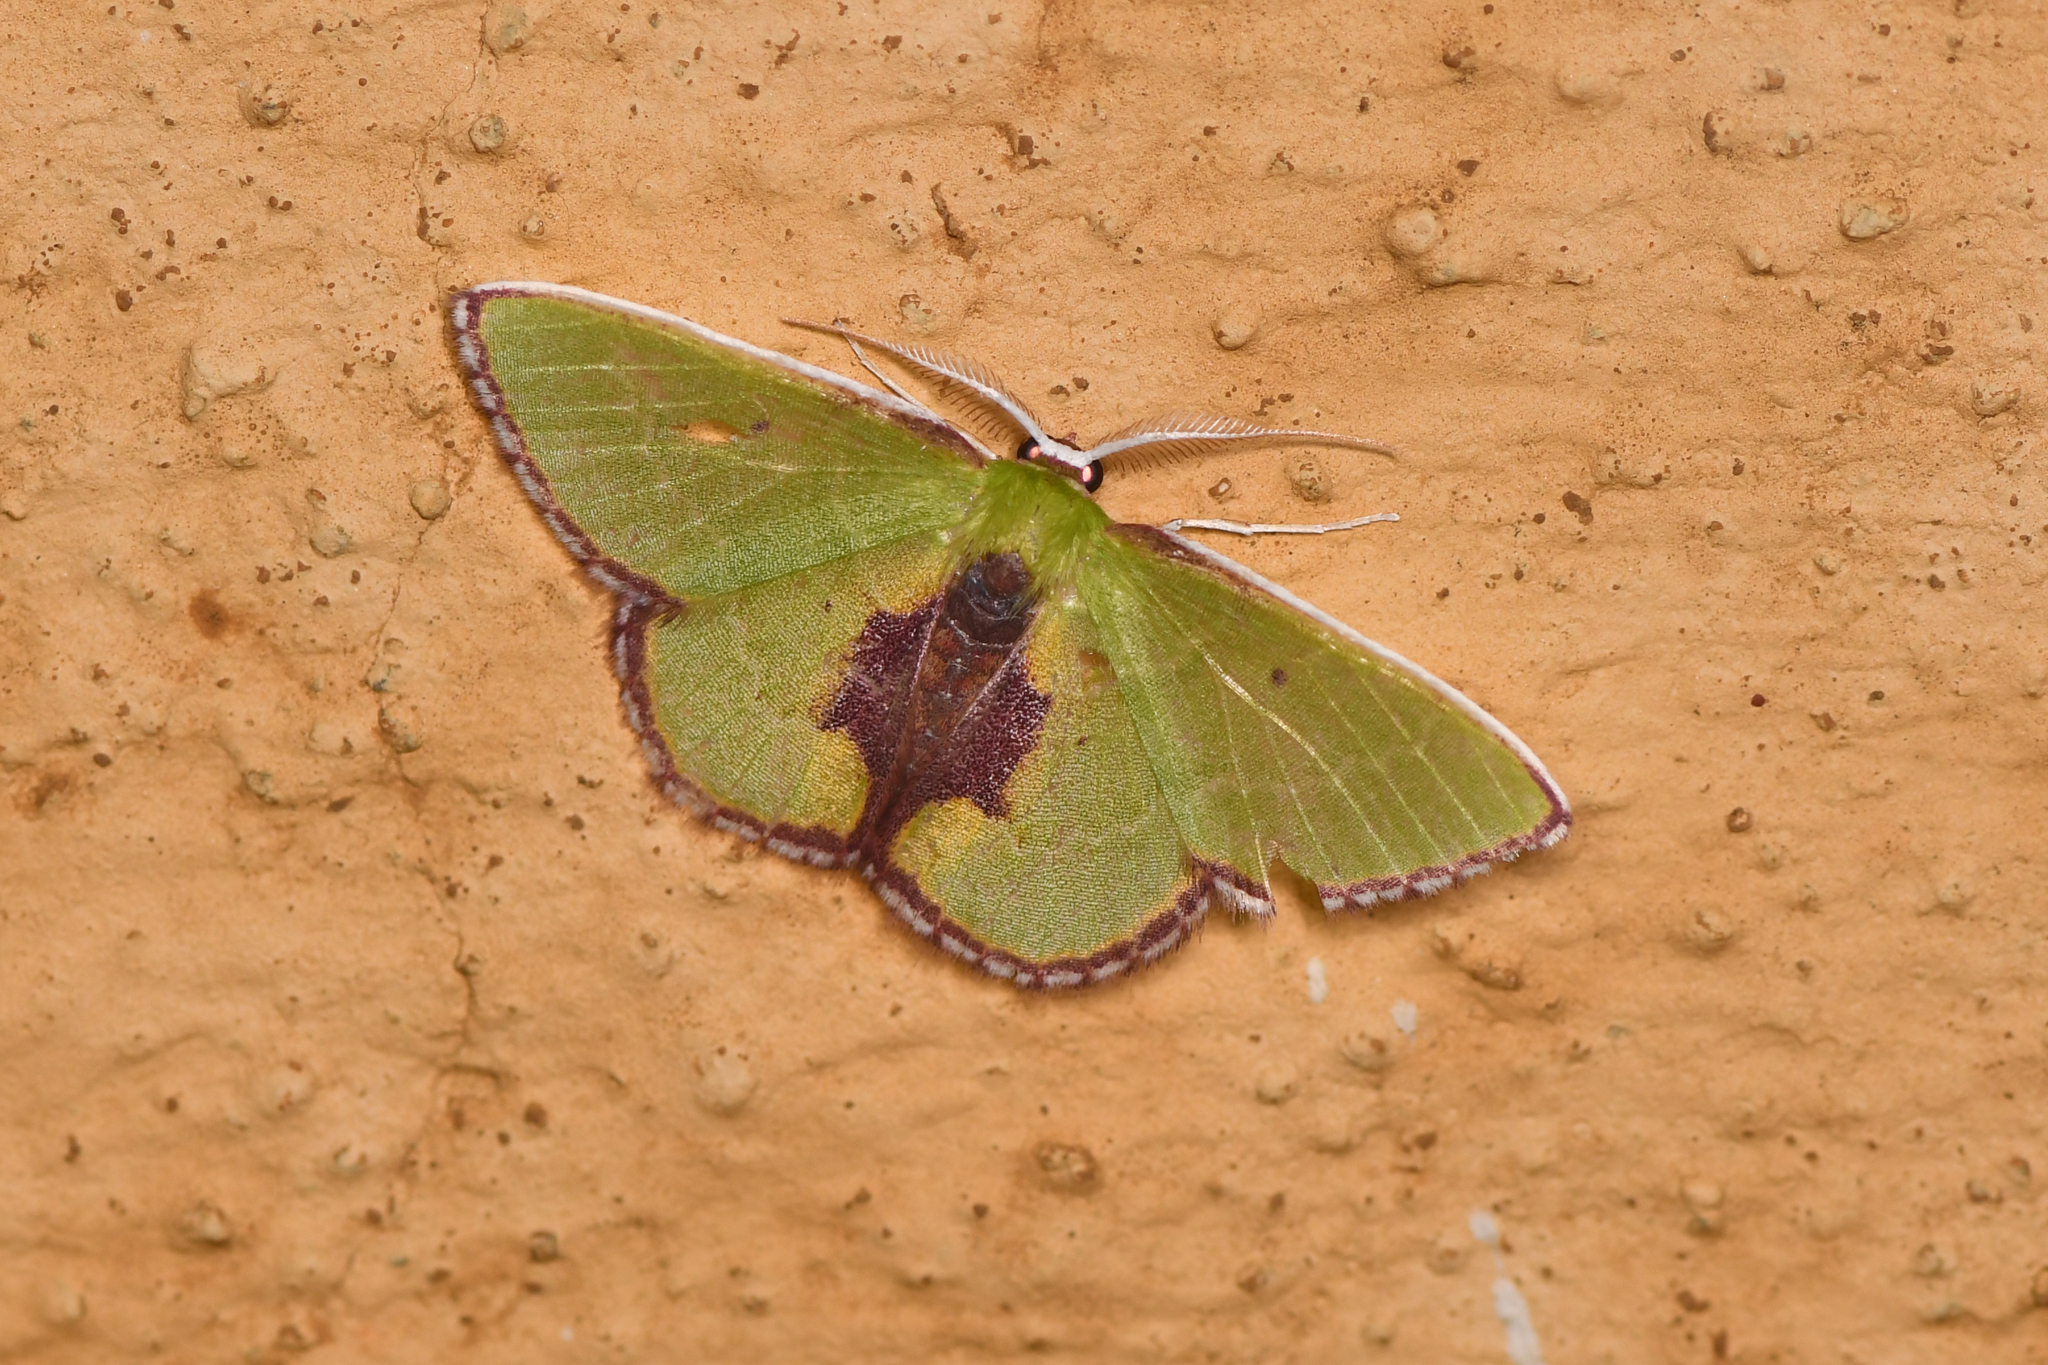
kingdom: Animalia
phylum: Arthropoda
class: Insecta
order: Lepidoptera
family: Geometridae
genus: Synchlora
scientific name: Synchlora astraeoides
